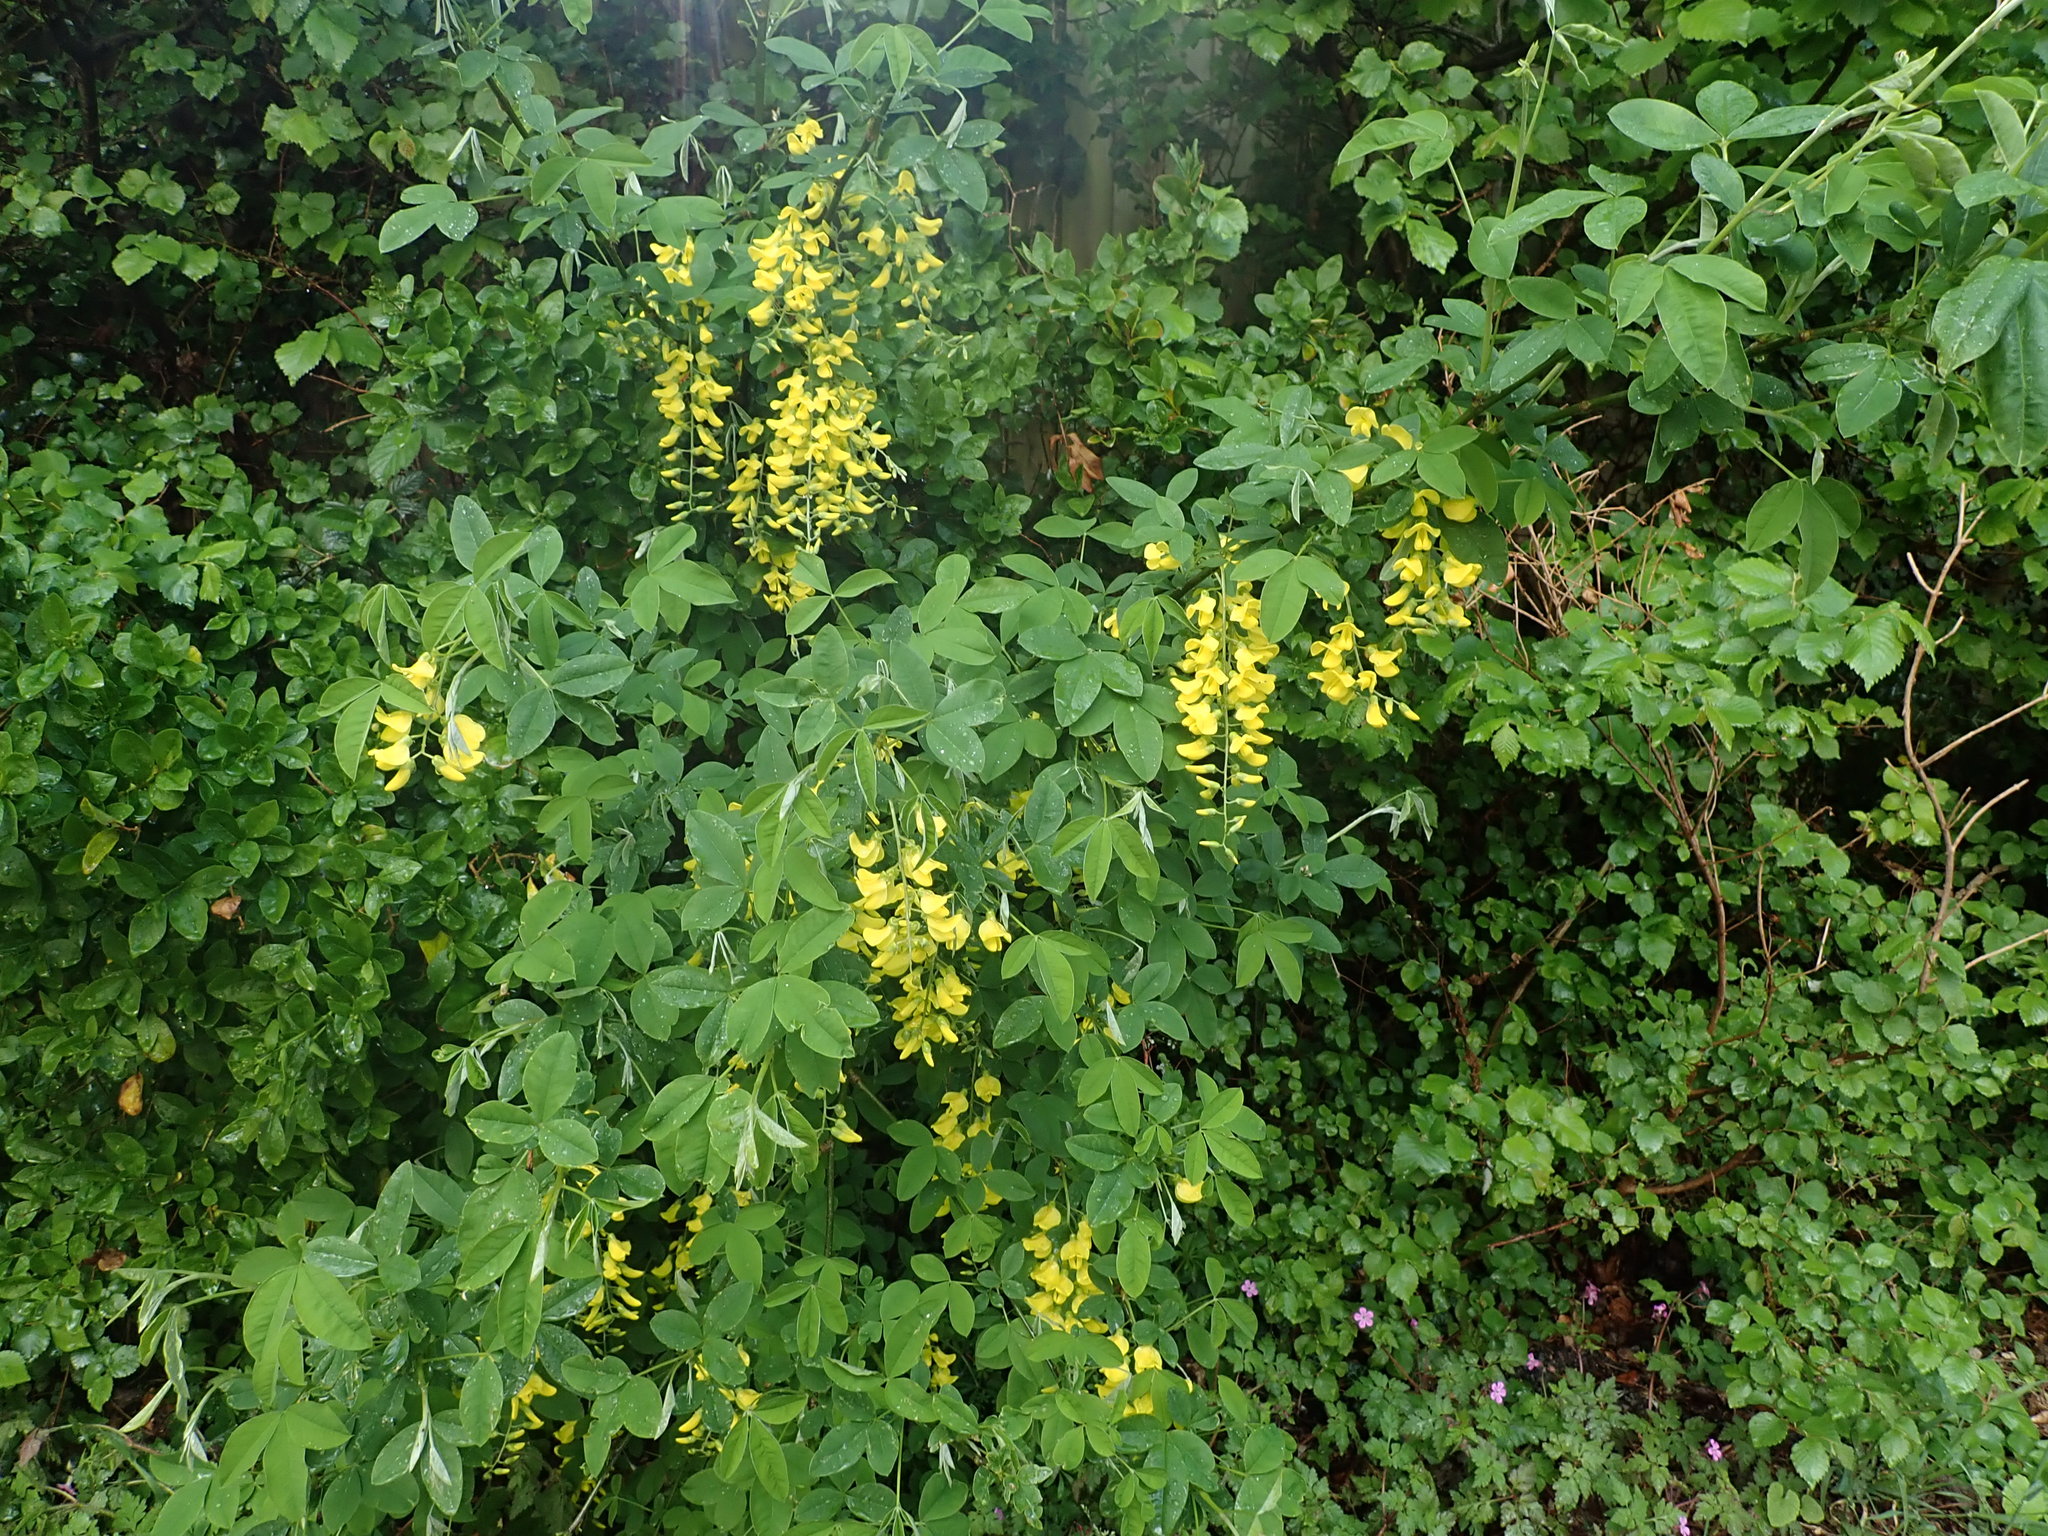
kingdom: Plantae
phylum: Tracheophyta
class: Magnoliopsida
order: Fabales
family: Fabaceae
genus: Laburnum
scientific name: Laburnum anagyroides
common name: Laburnum
